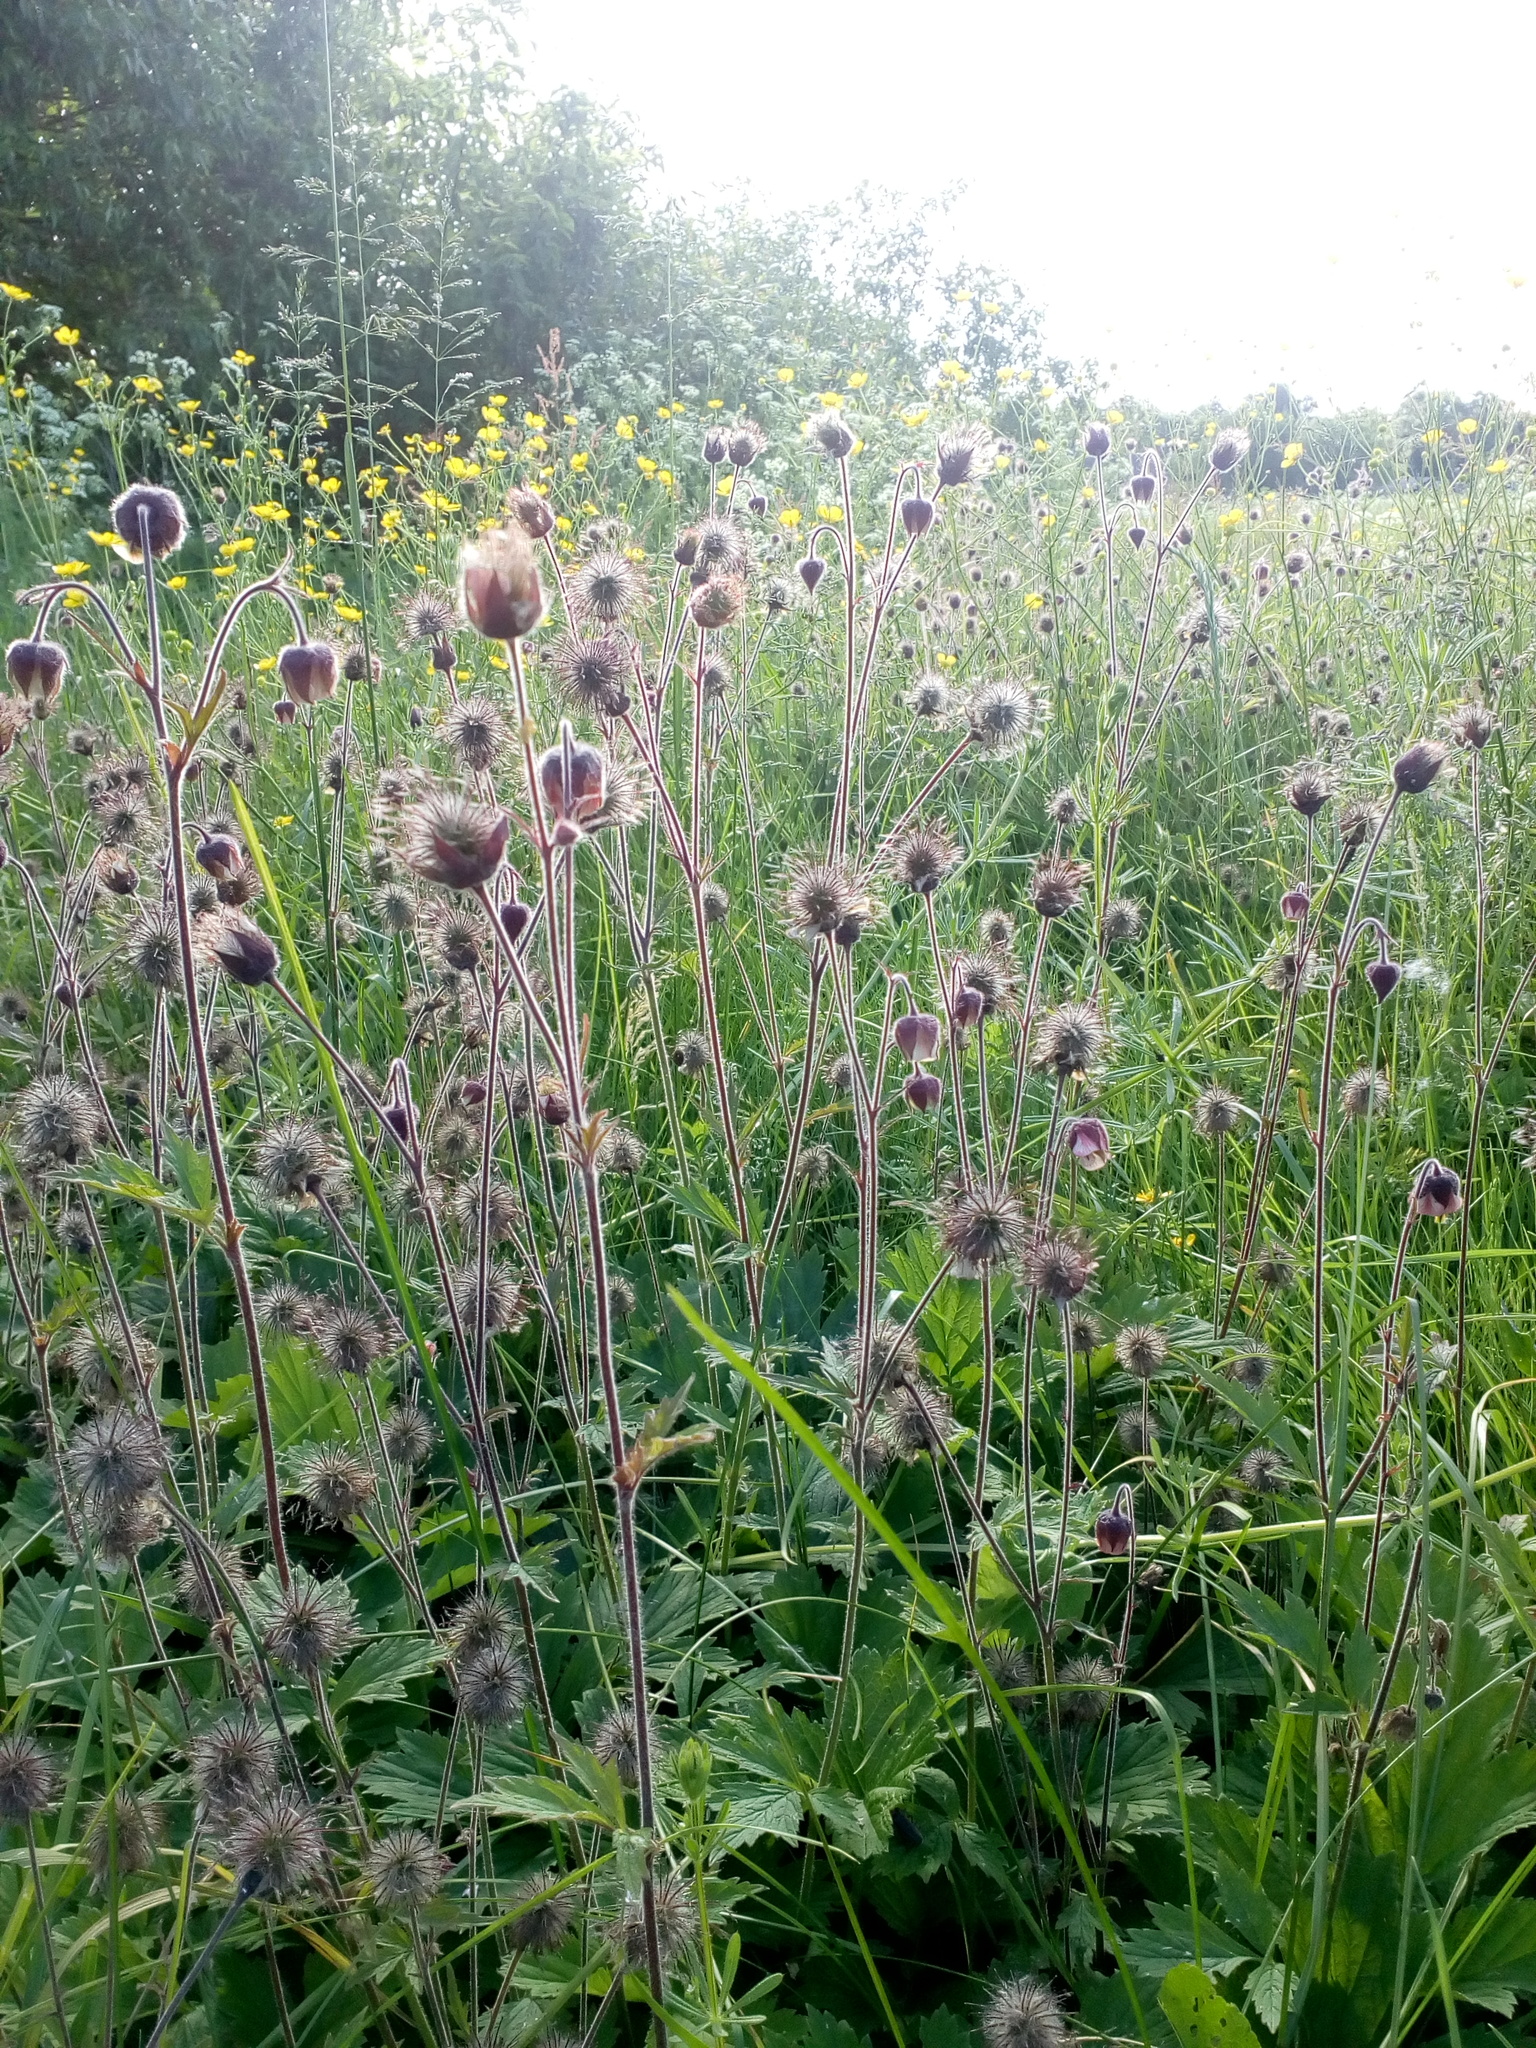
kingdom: Plantae
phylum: Tracheophyta
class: Magnoliopsida
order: Rosales
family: Rosaceae
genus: Geum
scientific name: Geum rivale
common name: Water avens
